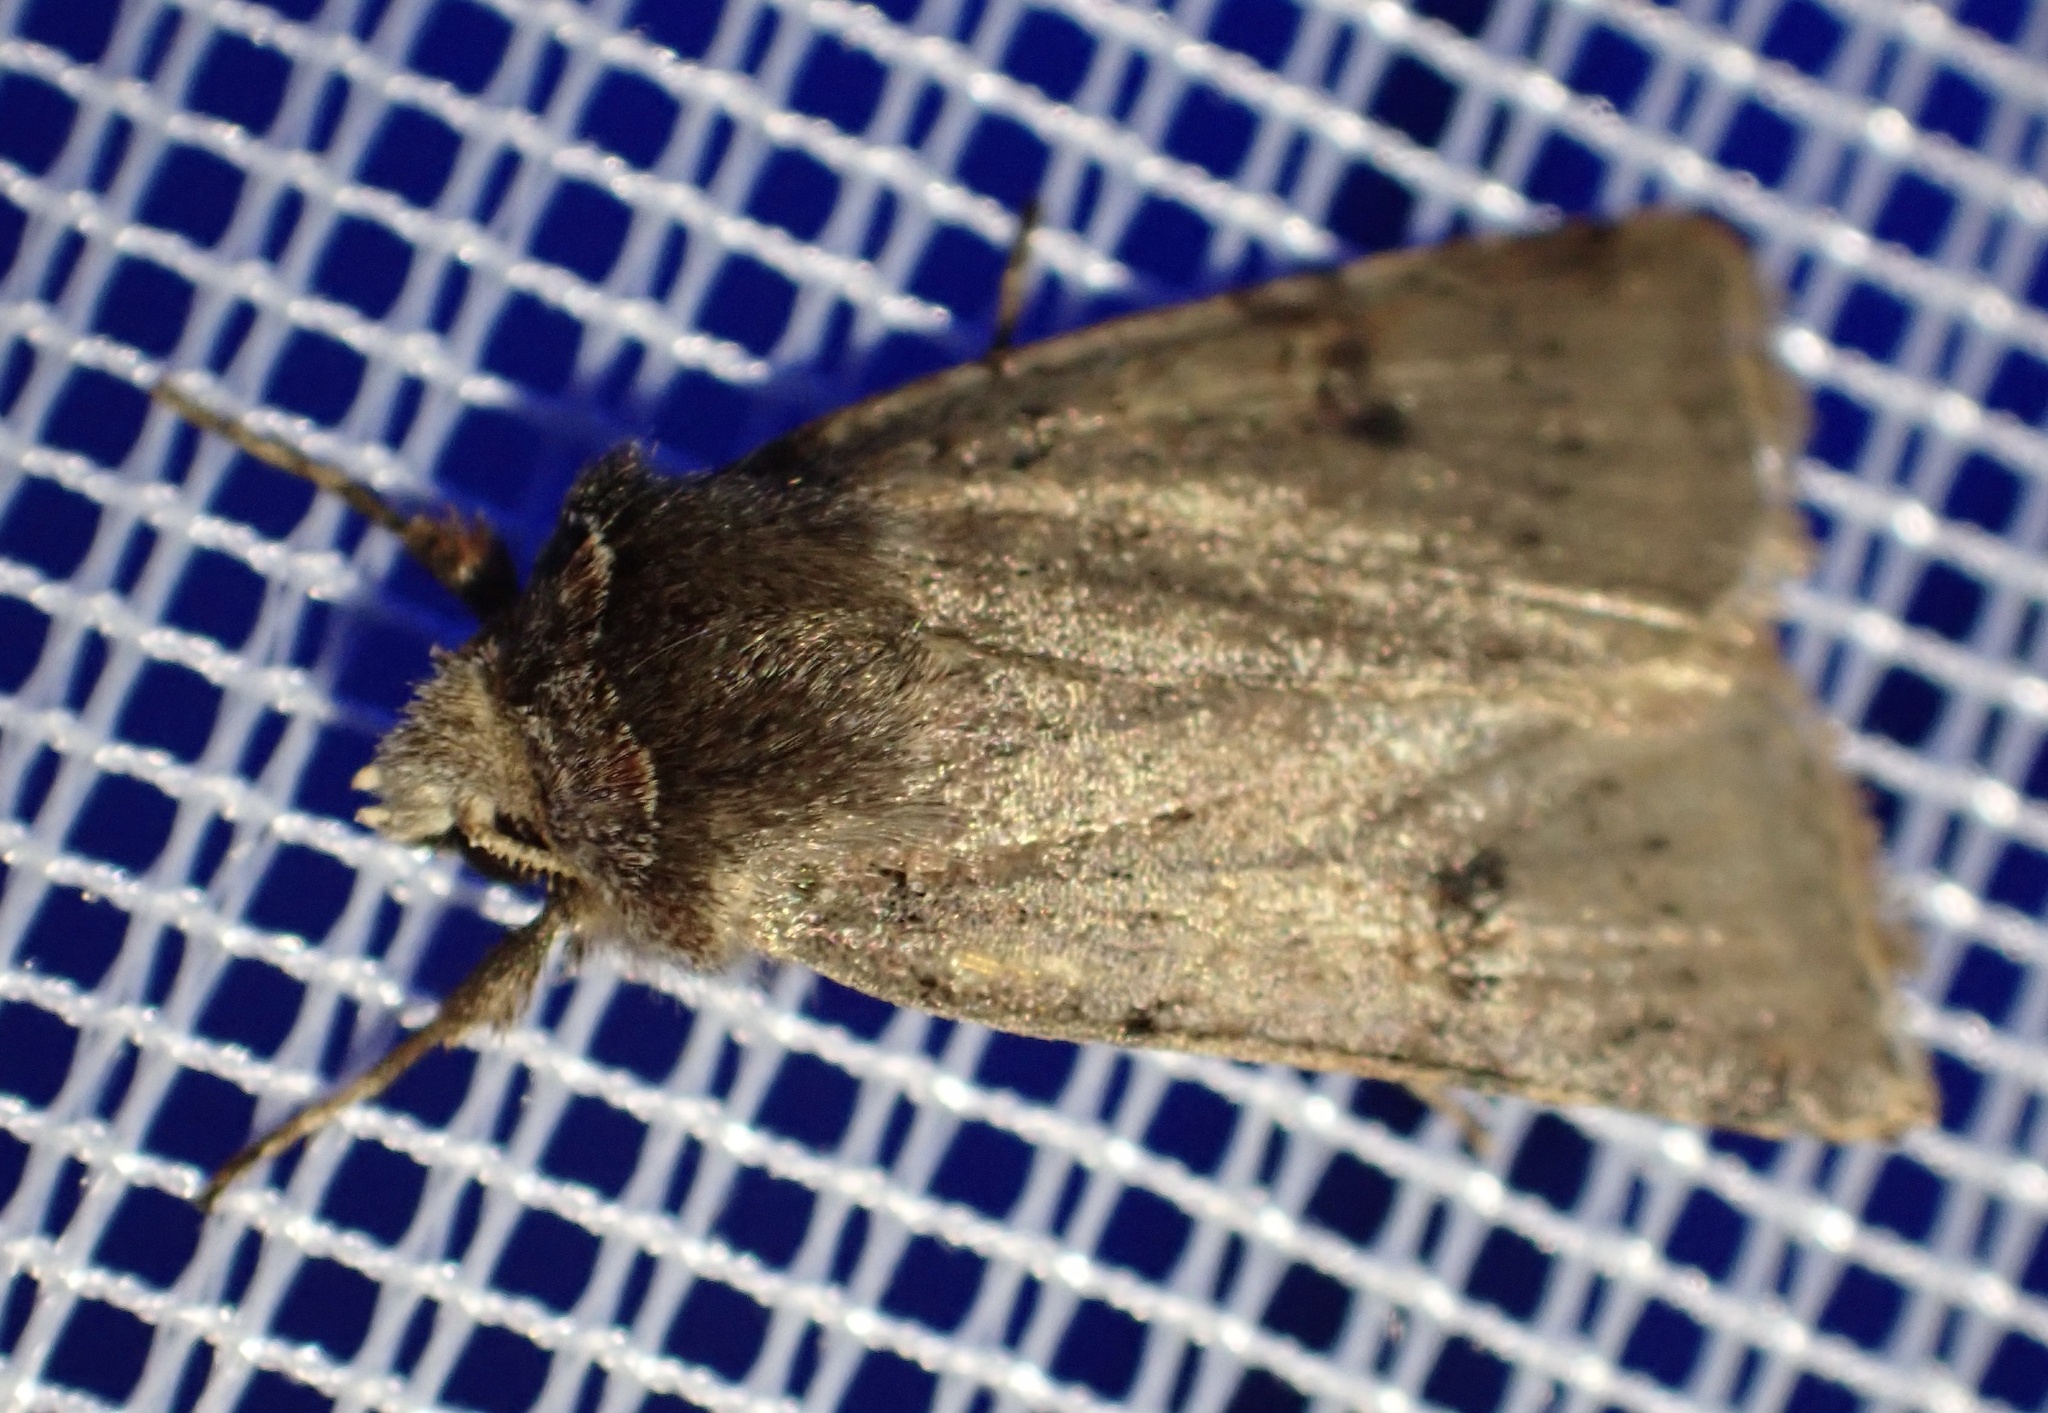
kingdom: Animalia
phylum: Arthropoda
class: Insecta
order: Lepidoptera
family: Noctuidae
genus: Cerastis
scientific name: Cerastis faceta
